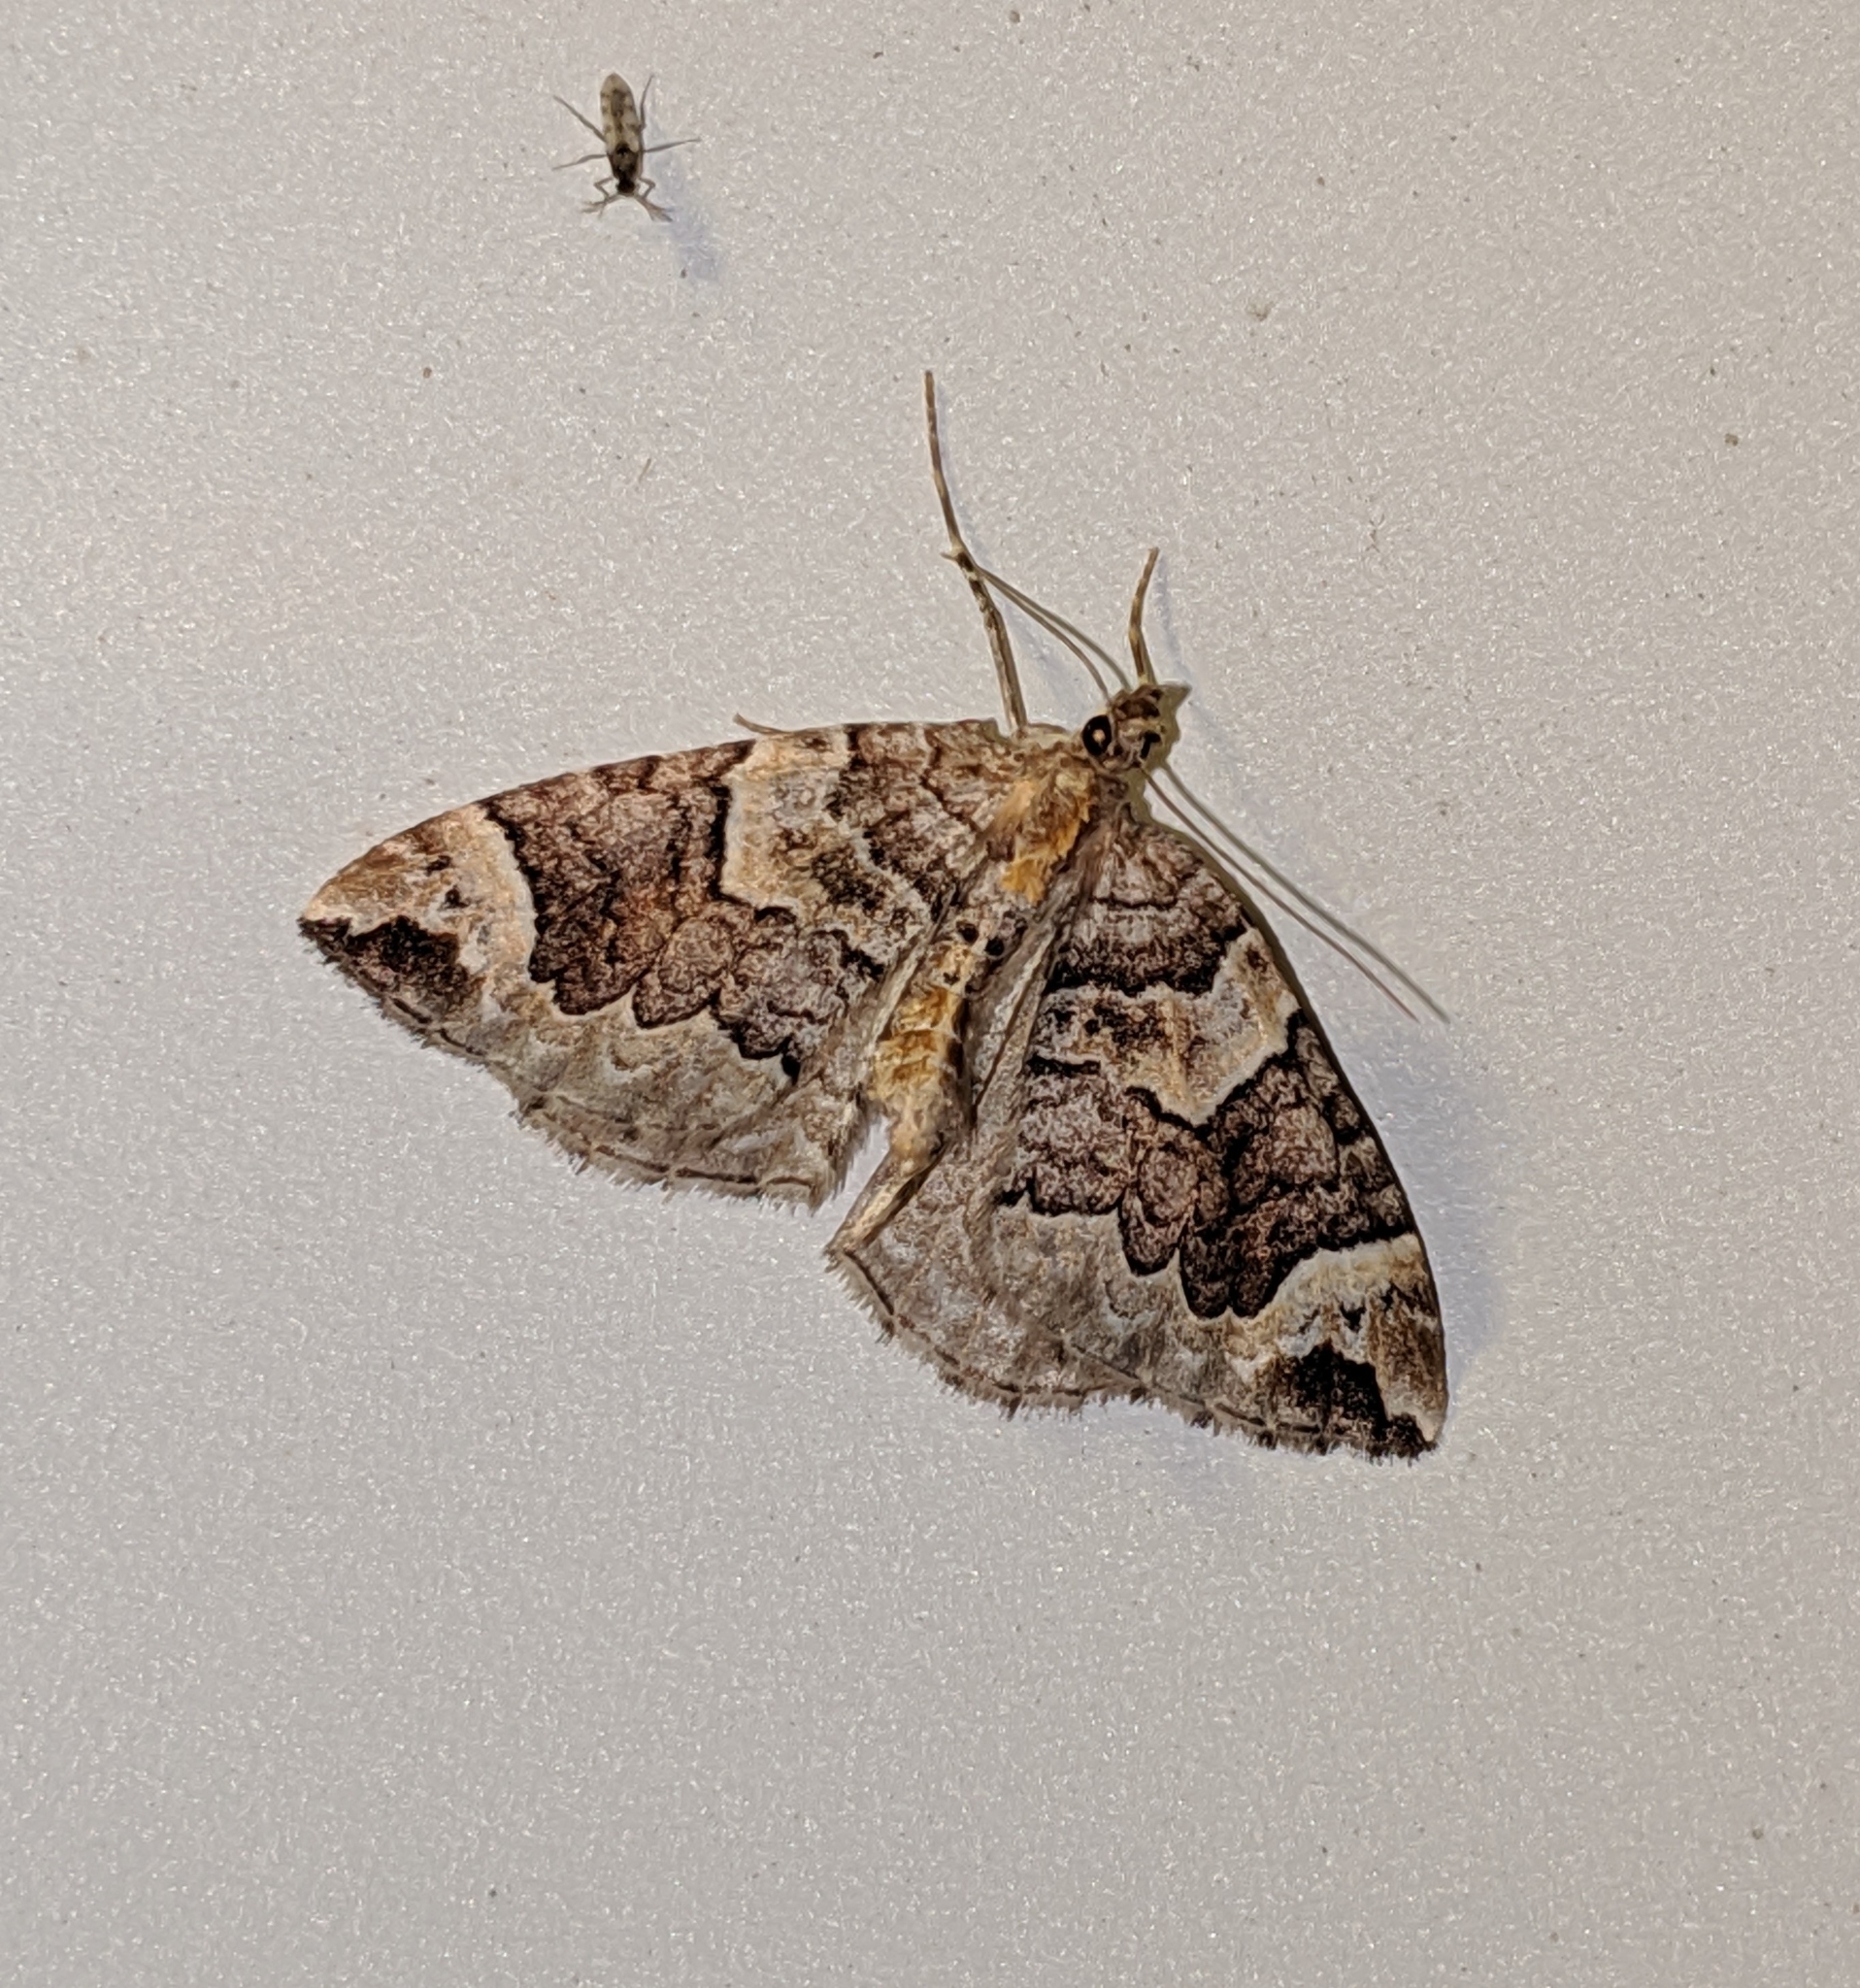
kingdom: Animalia
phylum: Arthropoda
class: Insecta
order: Lepidoptera
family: Geometridae
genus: Eulithis
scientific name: Eulithis xylina
